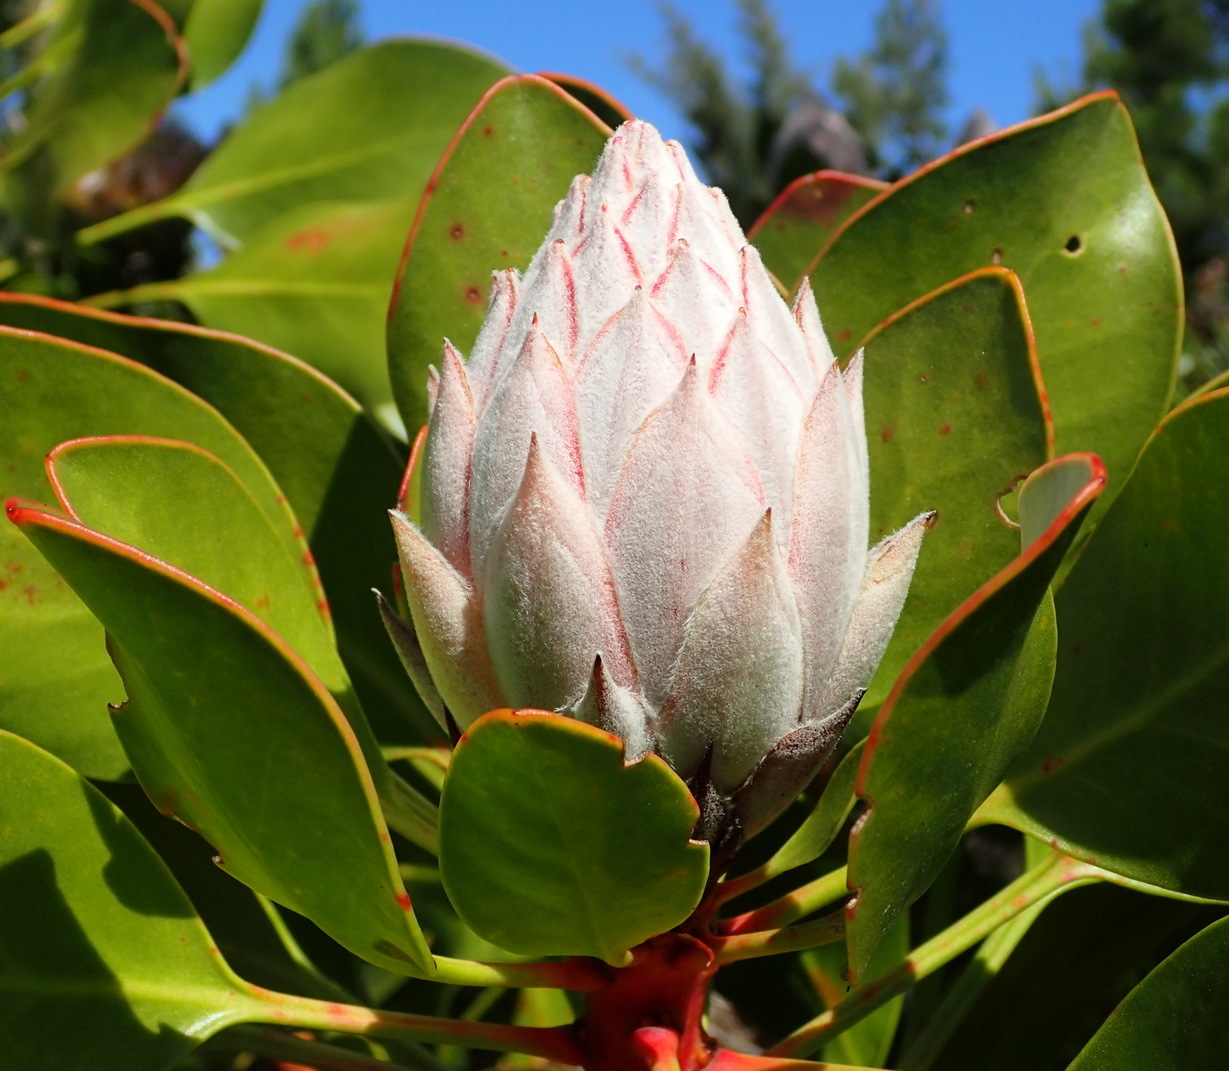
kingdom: Plantae
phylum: Tracheophyta
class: Magnoliopsida
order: Proteales
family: Proteaceae
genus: Protea
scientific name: Protea cynaroides
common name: King protea
